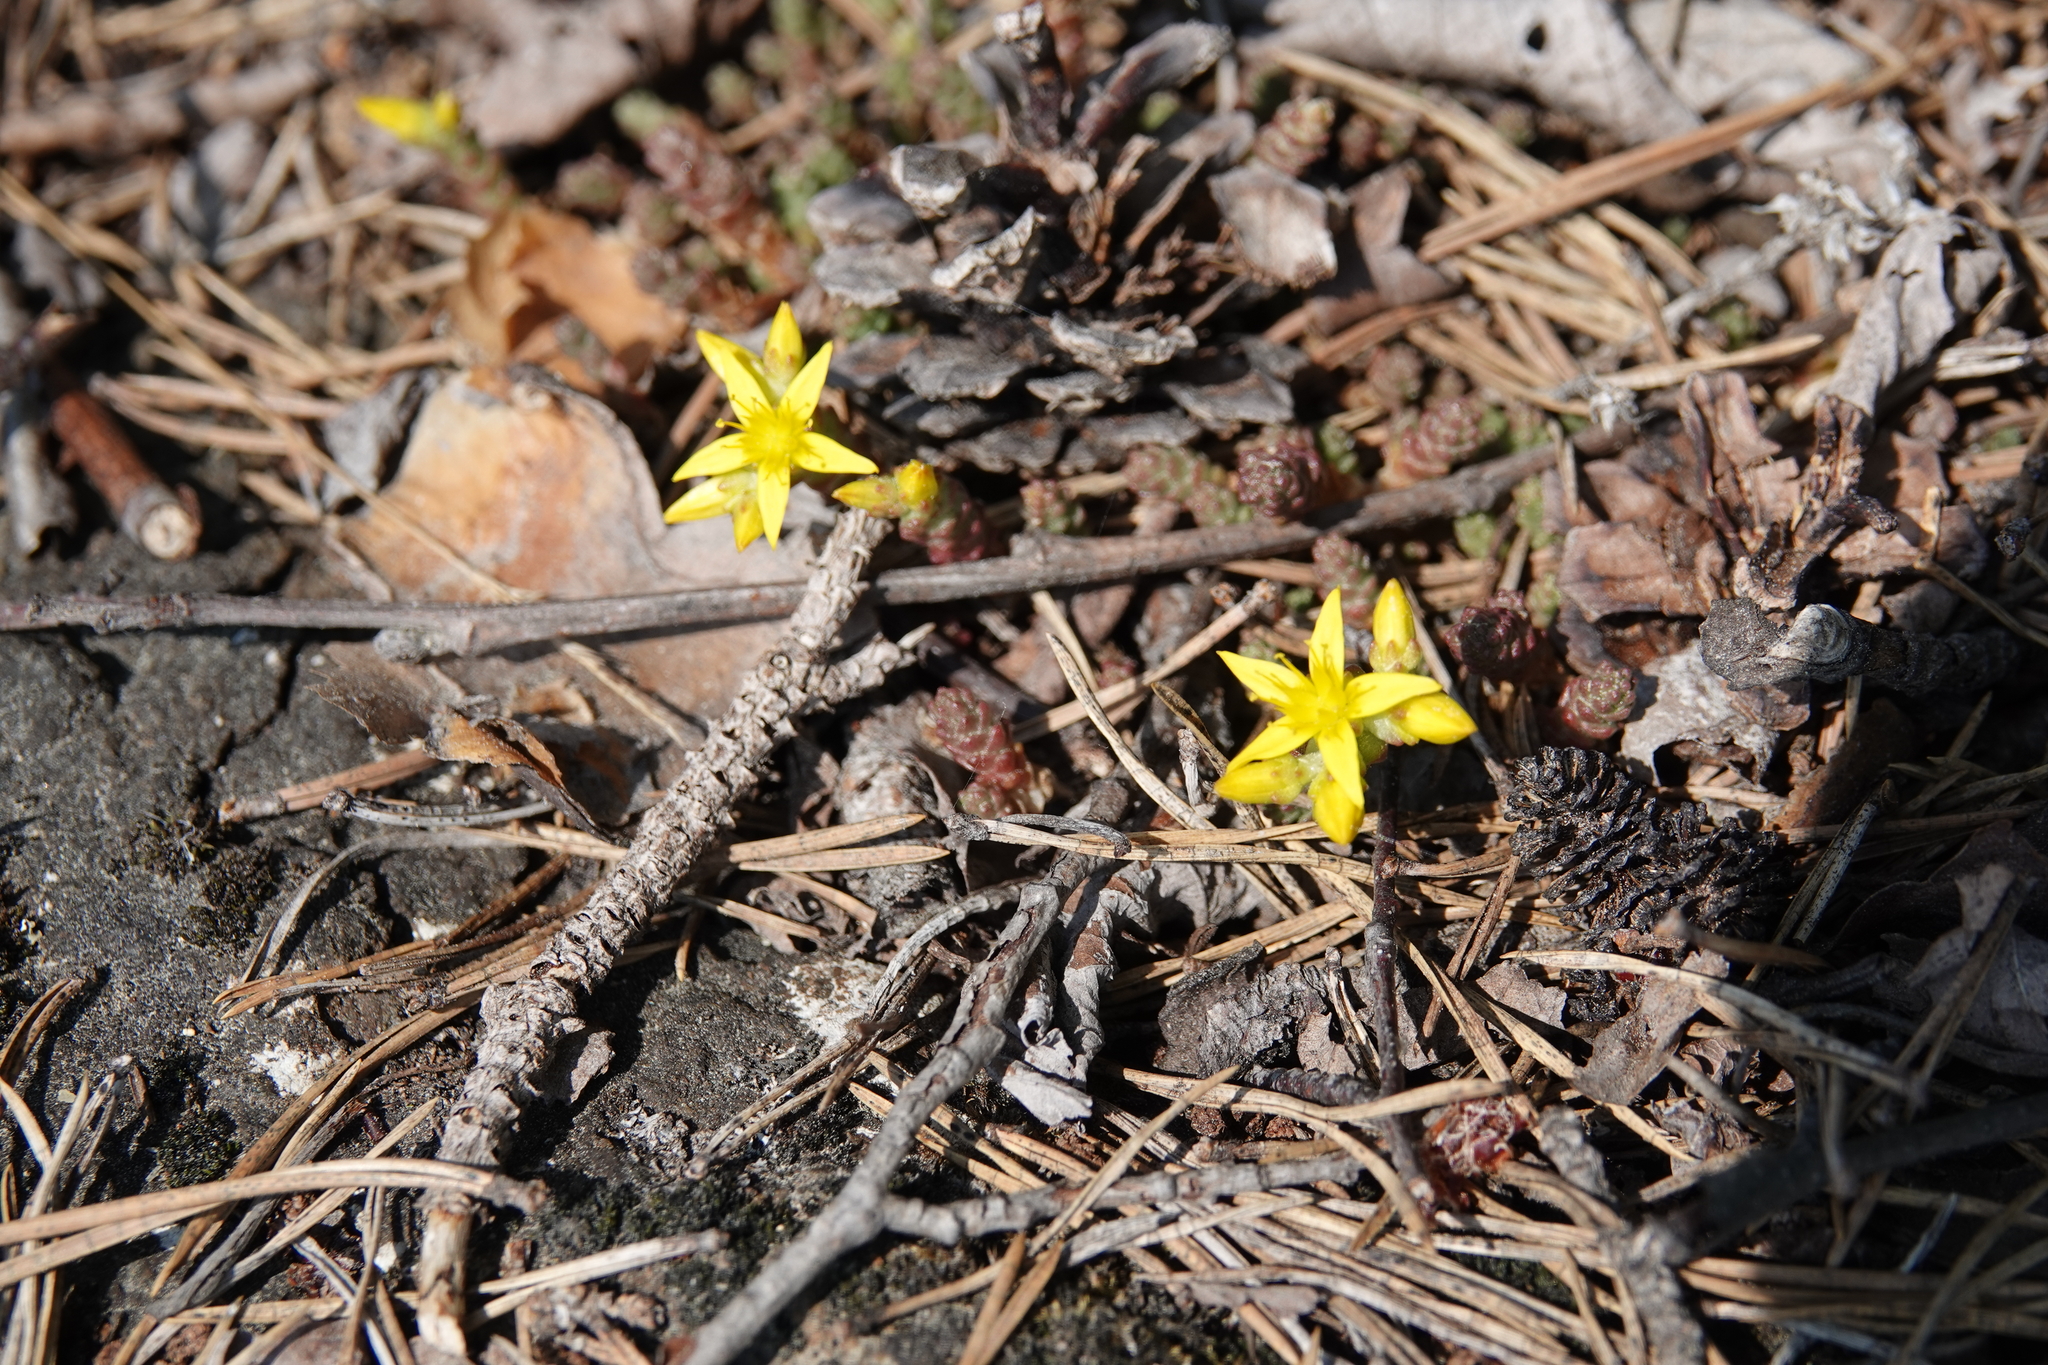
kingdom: Plantae
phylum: Tracheophyta
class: Magnoliopsida
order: Saxifragales
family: Crassulaceae
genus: Sedum
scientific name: Sedum acre
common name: Biting stonecrop
